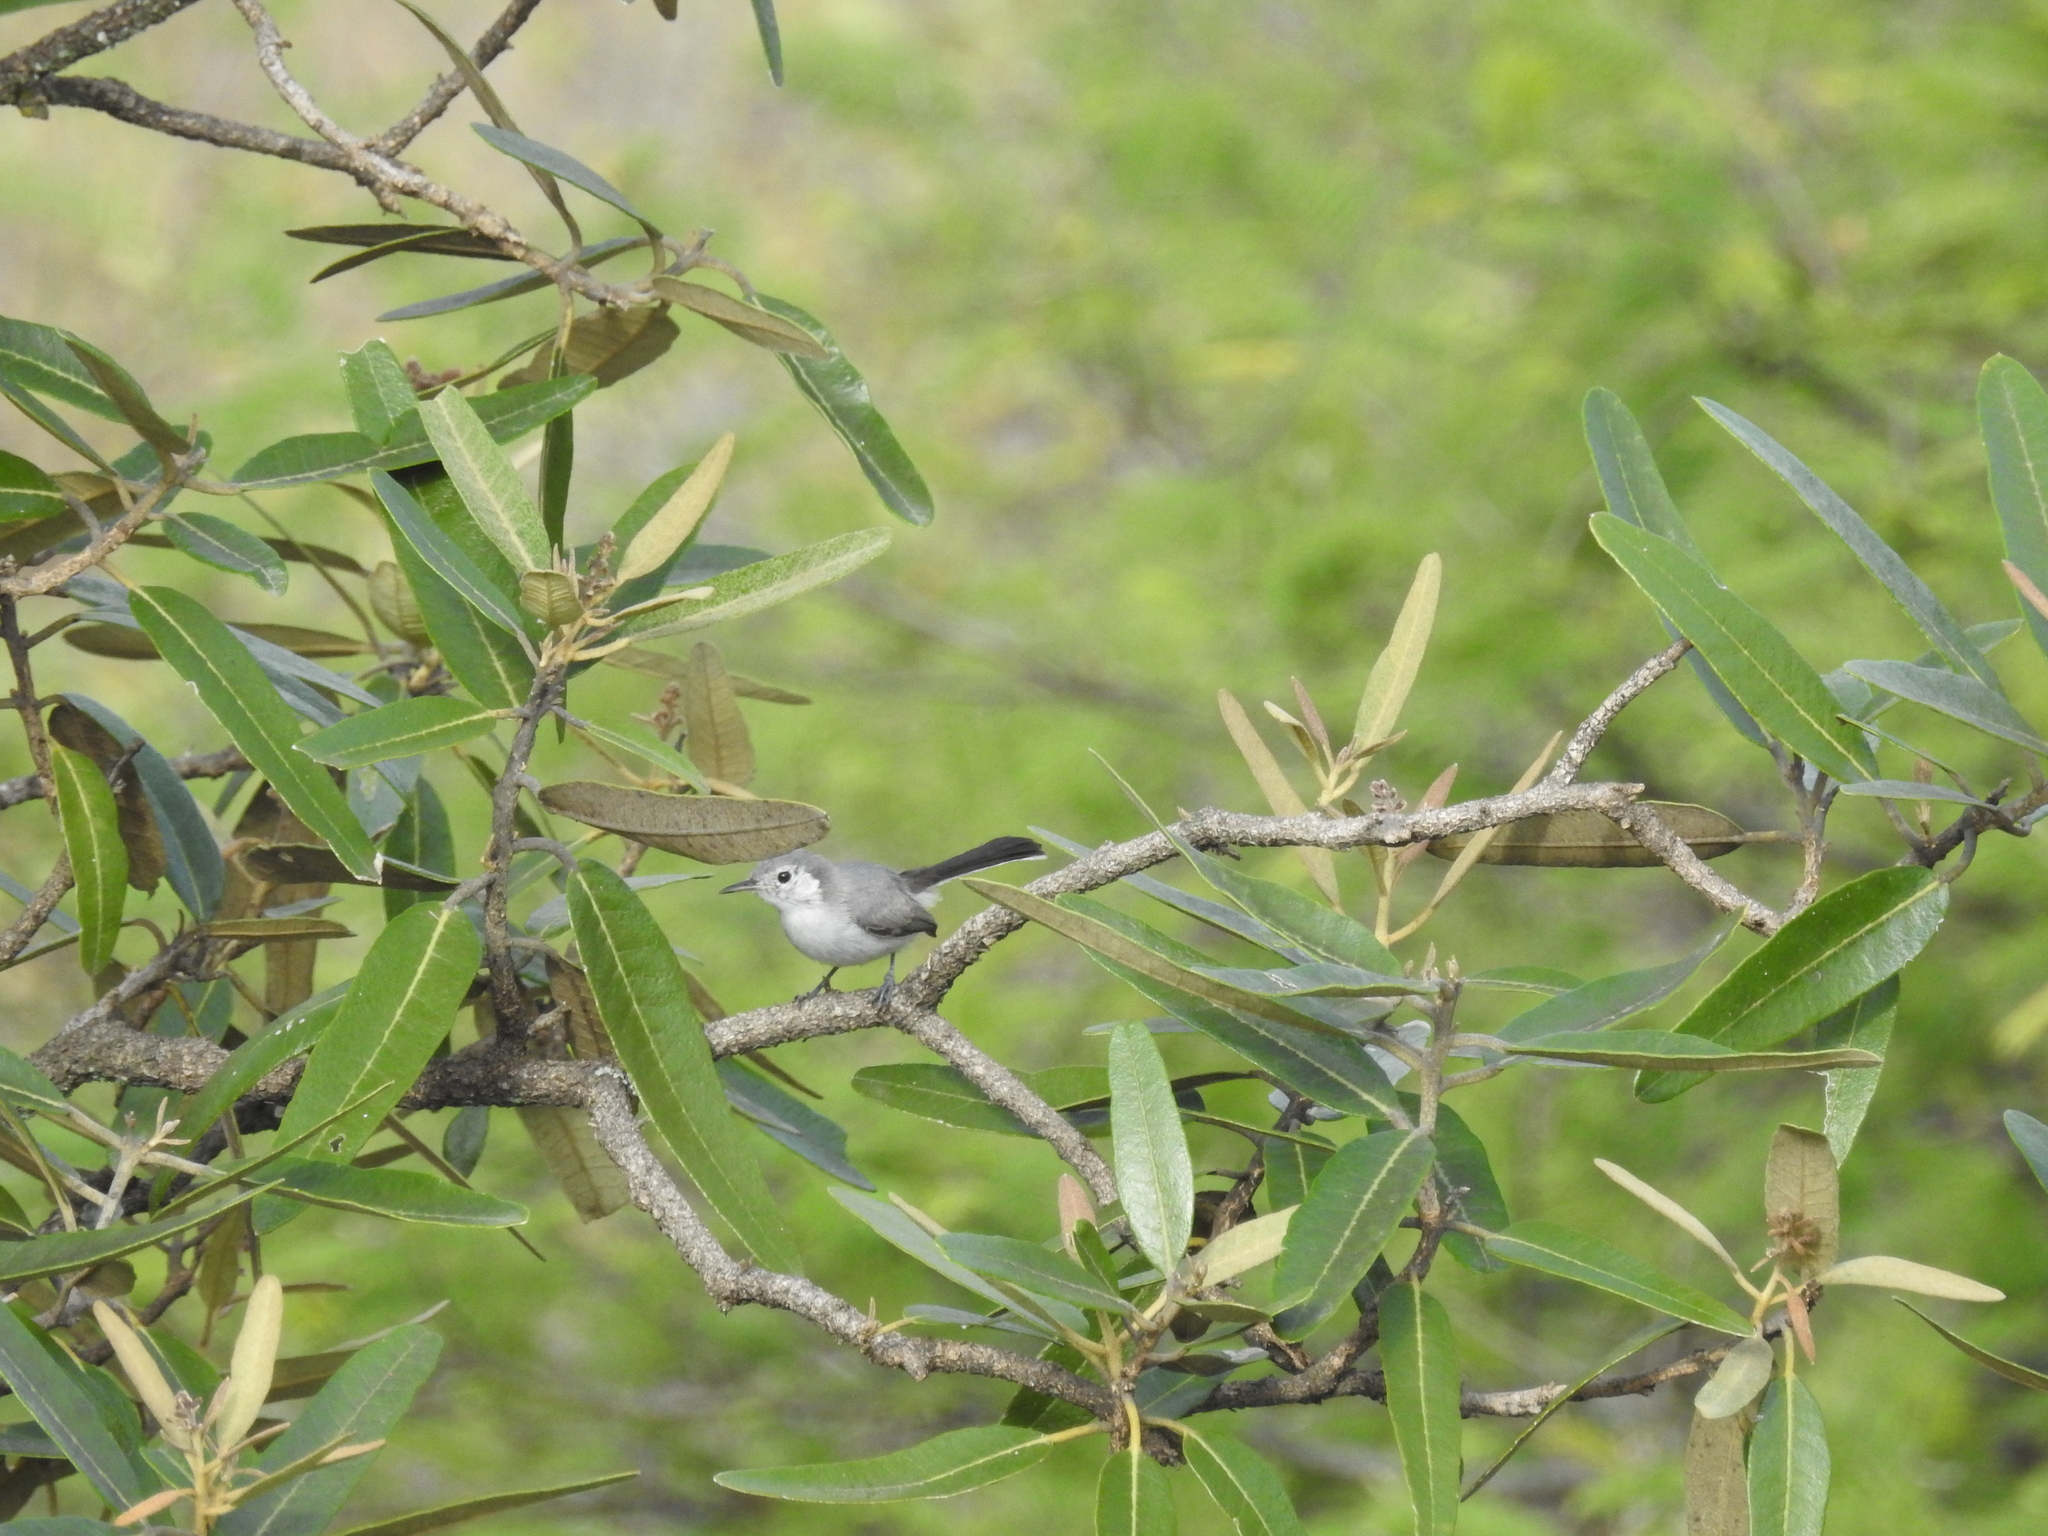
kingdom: Animalia
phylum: Chordata
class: Aves
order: Passeriformes
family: Polioptilidae
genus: Polioptila
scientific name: Polioptila plumbea
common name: Tropical gnatcatcher
